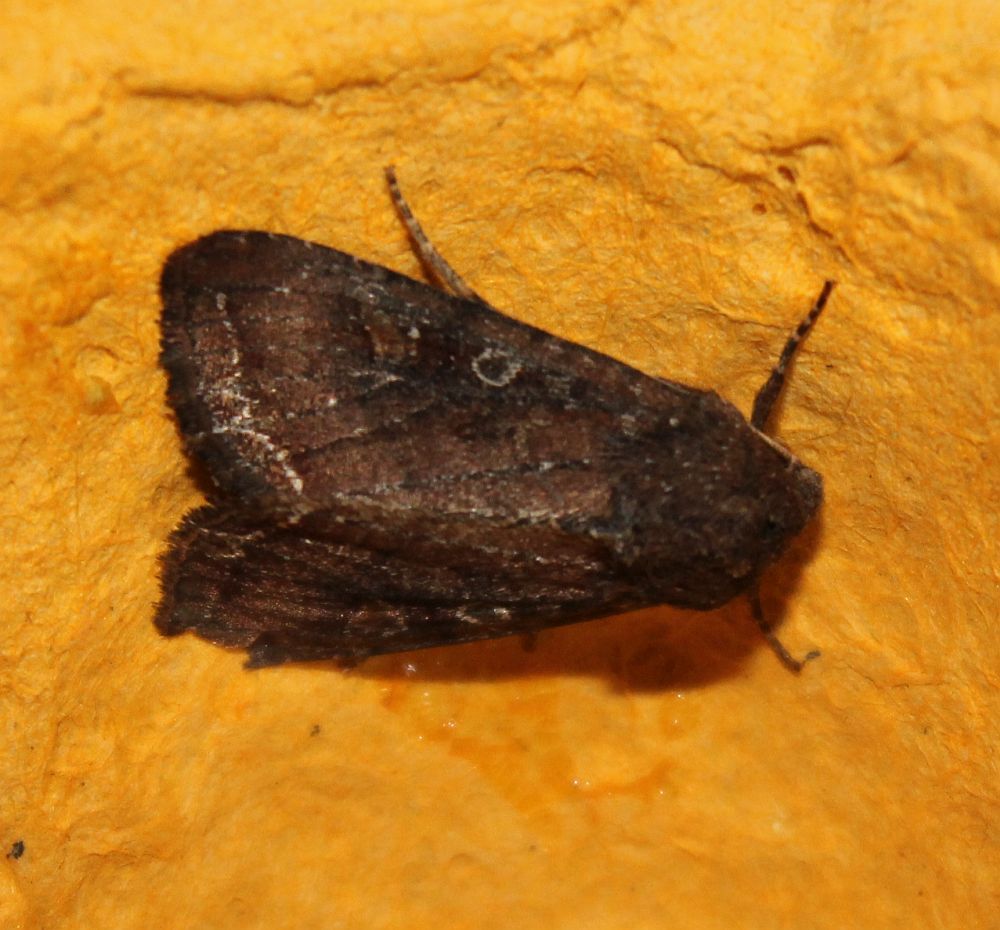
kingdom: Animalia
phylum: Arthropoda
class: Insecta
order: Lepidoptera
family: Noctuidae
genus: Lacanobia
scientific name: Lacanobia oleracea
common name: Bright-line brown-eye
